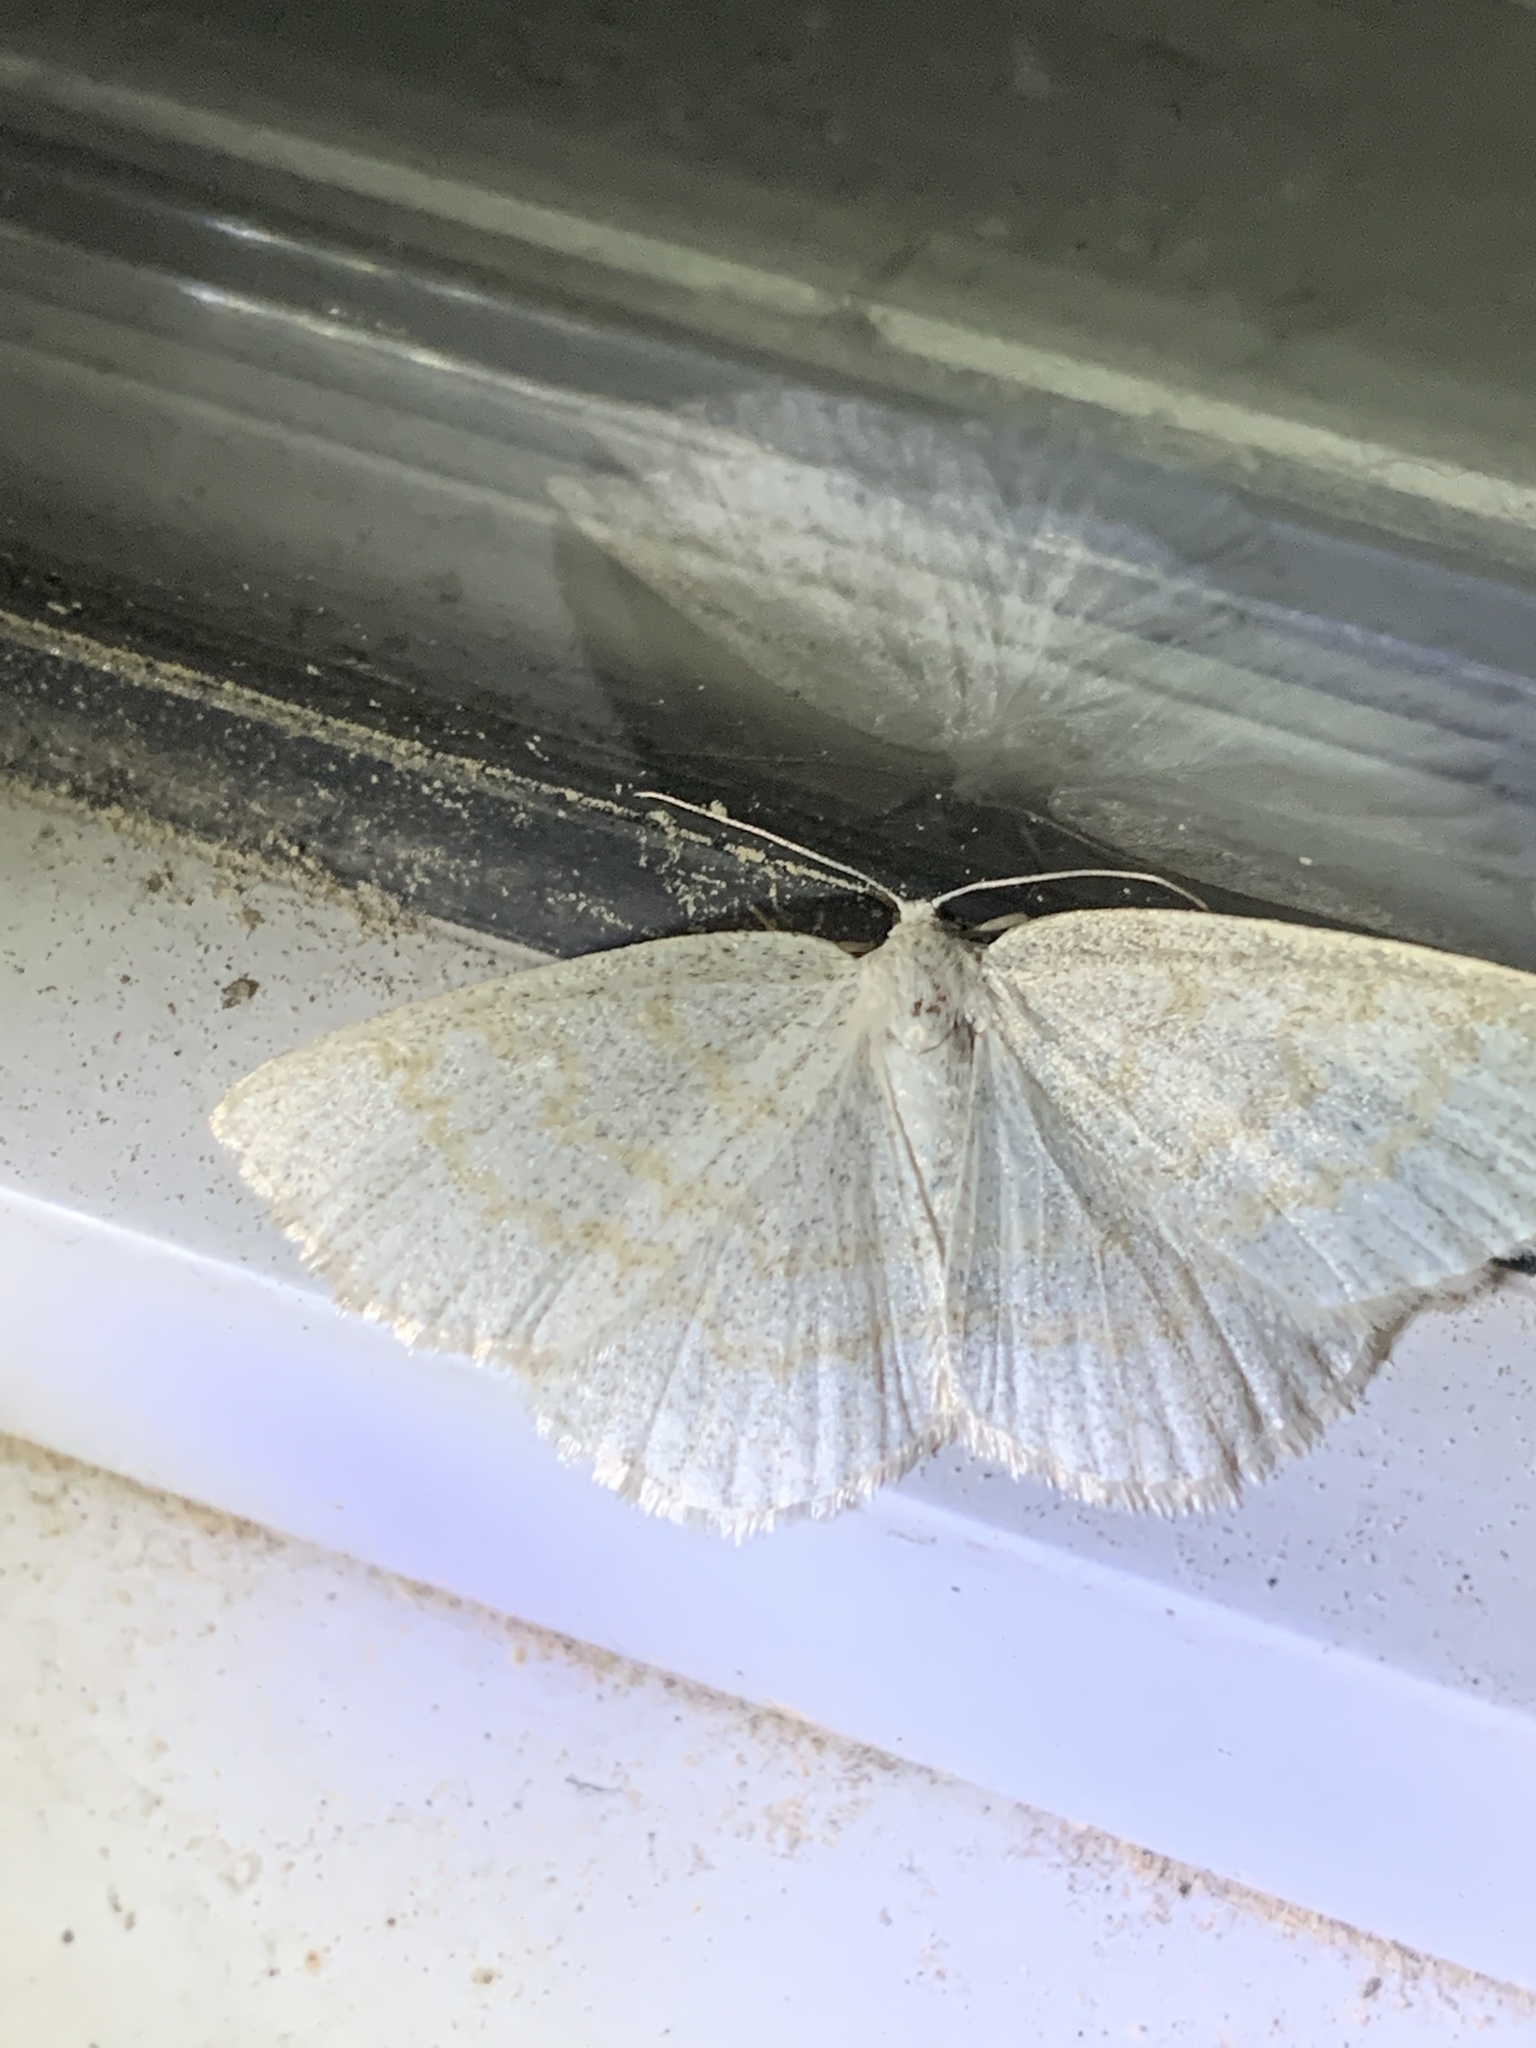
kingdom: Animalia
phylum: Arthropoda
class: Insecta
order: Lepidoptera
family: Geometridae
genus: Cabera
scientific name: Cabera erythemaria
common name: Yellow-dusted cream moth
